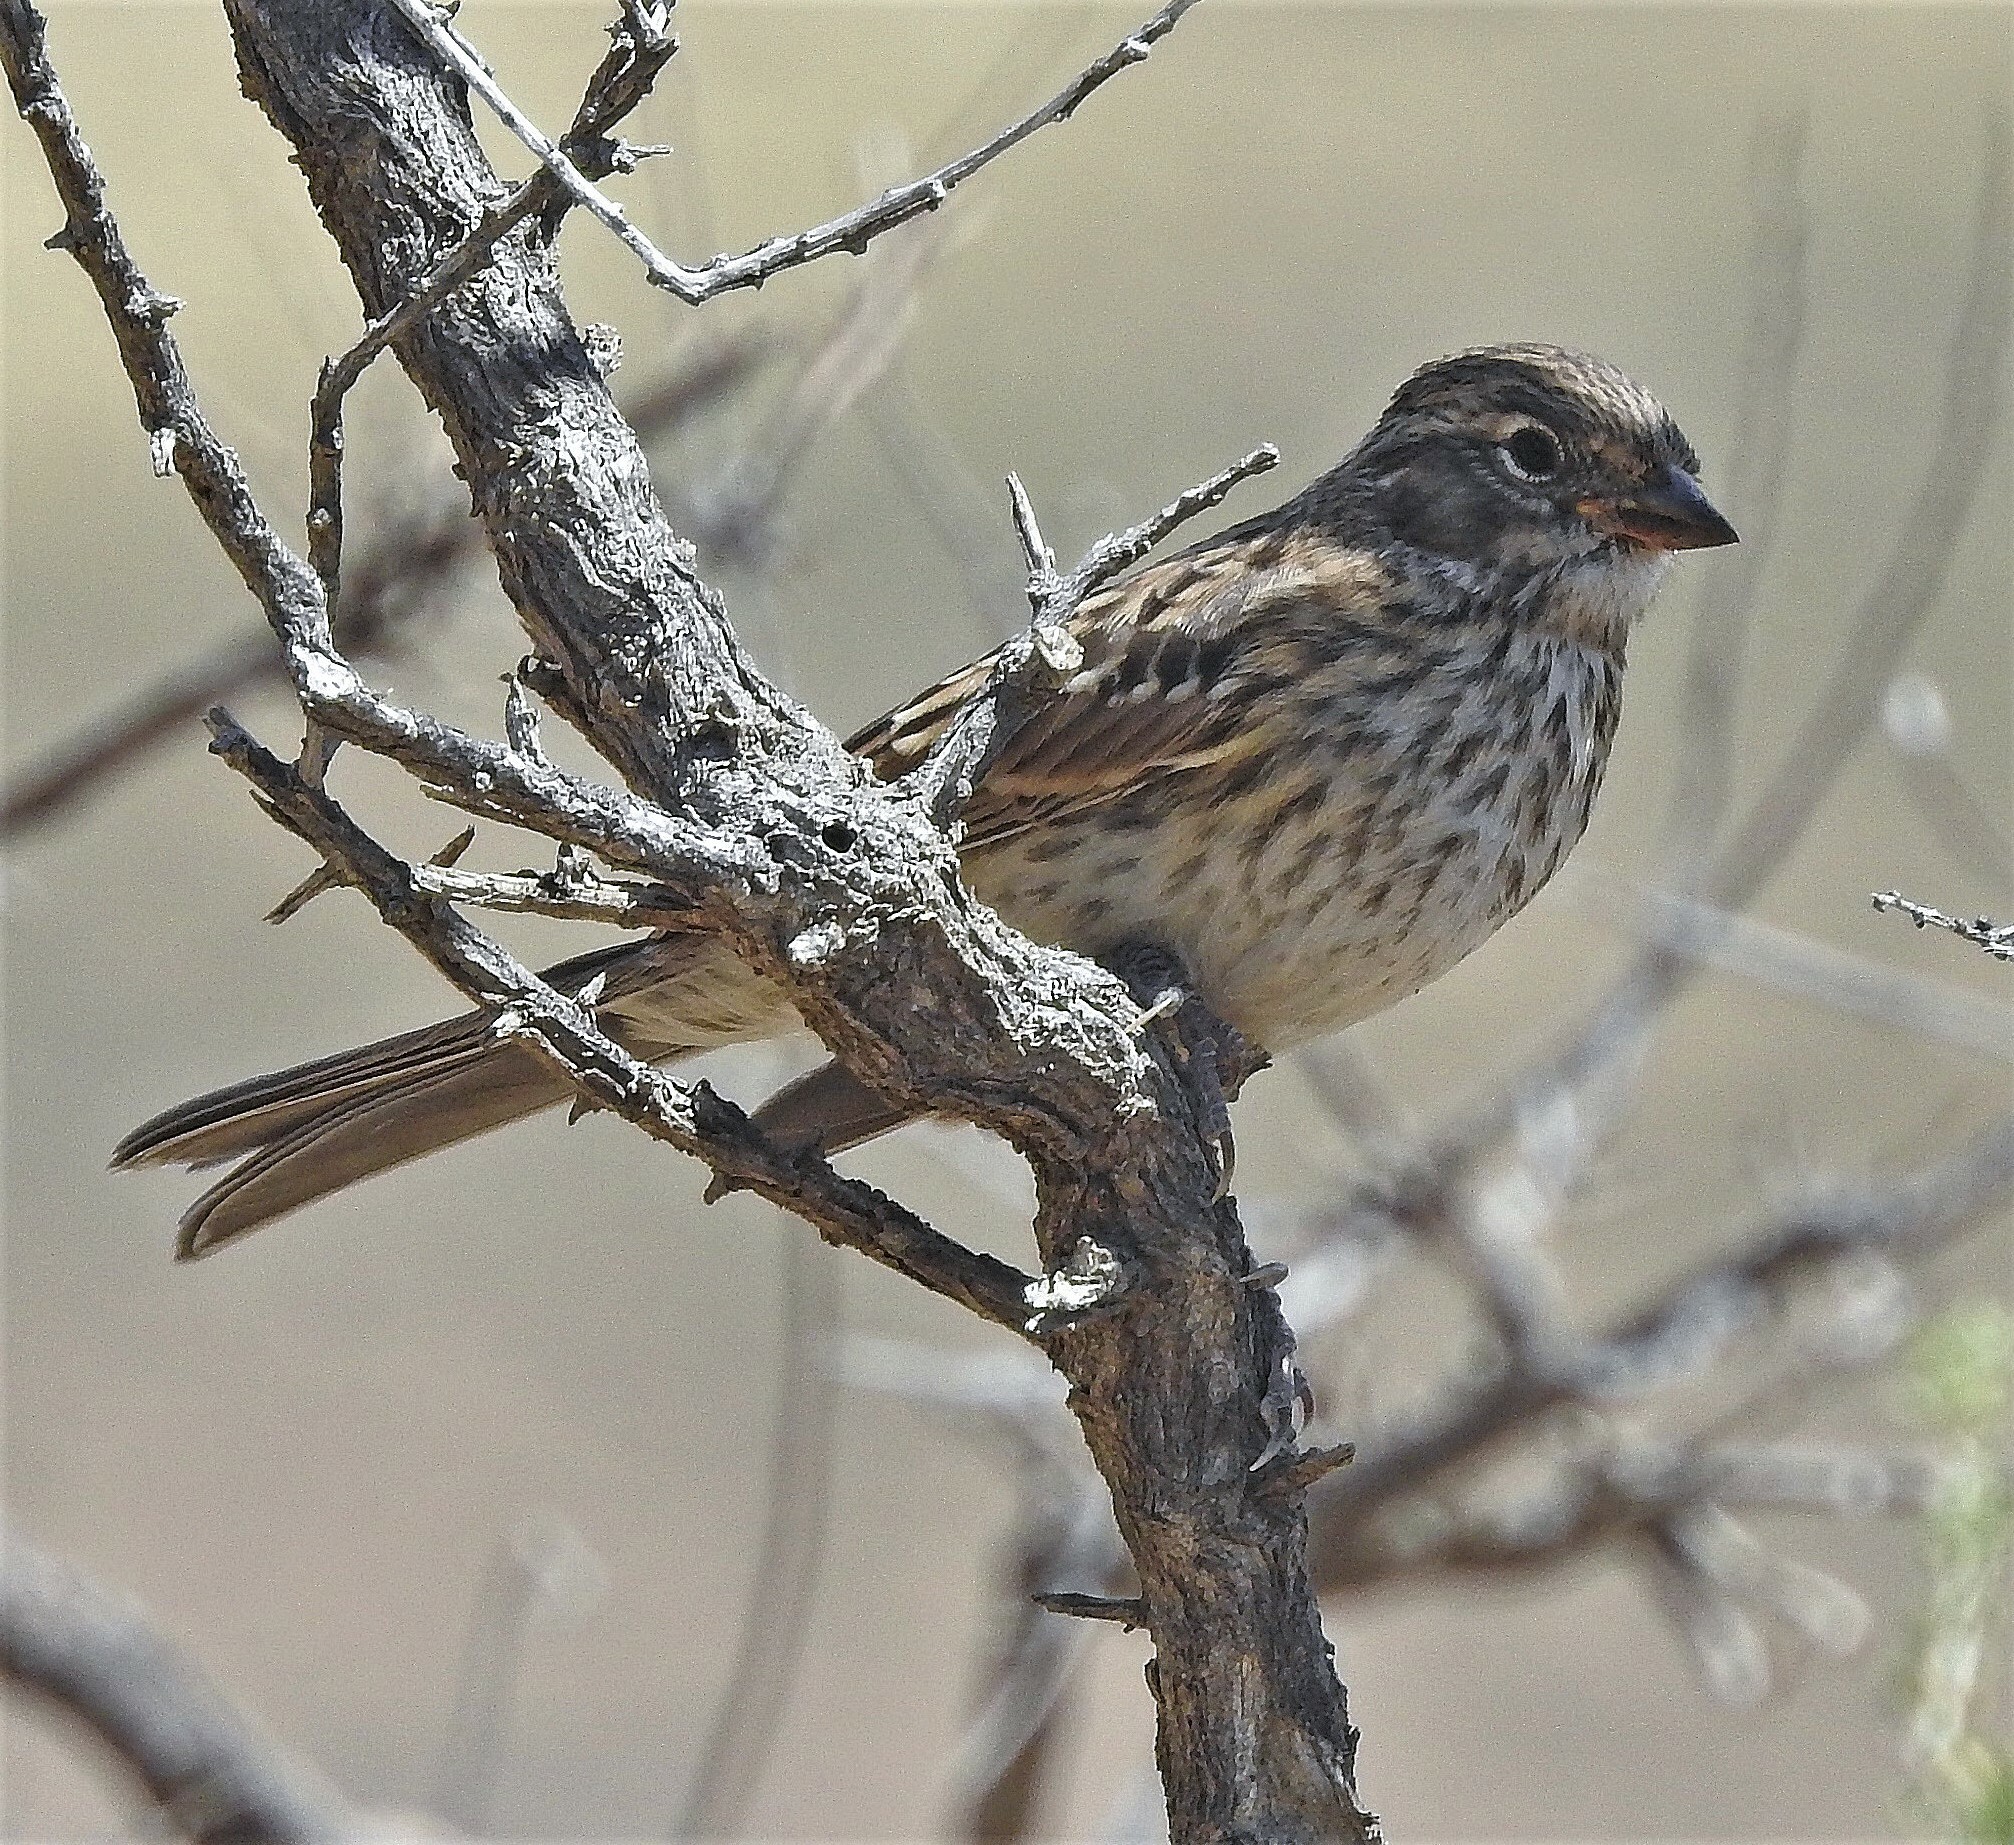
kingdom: Animalia
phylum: Chordata
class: Aves
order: Passeriformes
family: Thraupidae
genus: Rhopospina
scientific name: Rhopospina fruticeti
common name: Mourning sierra finch
